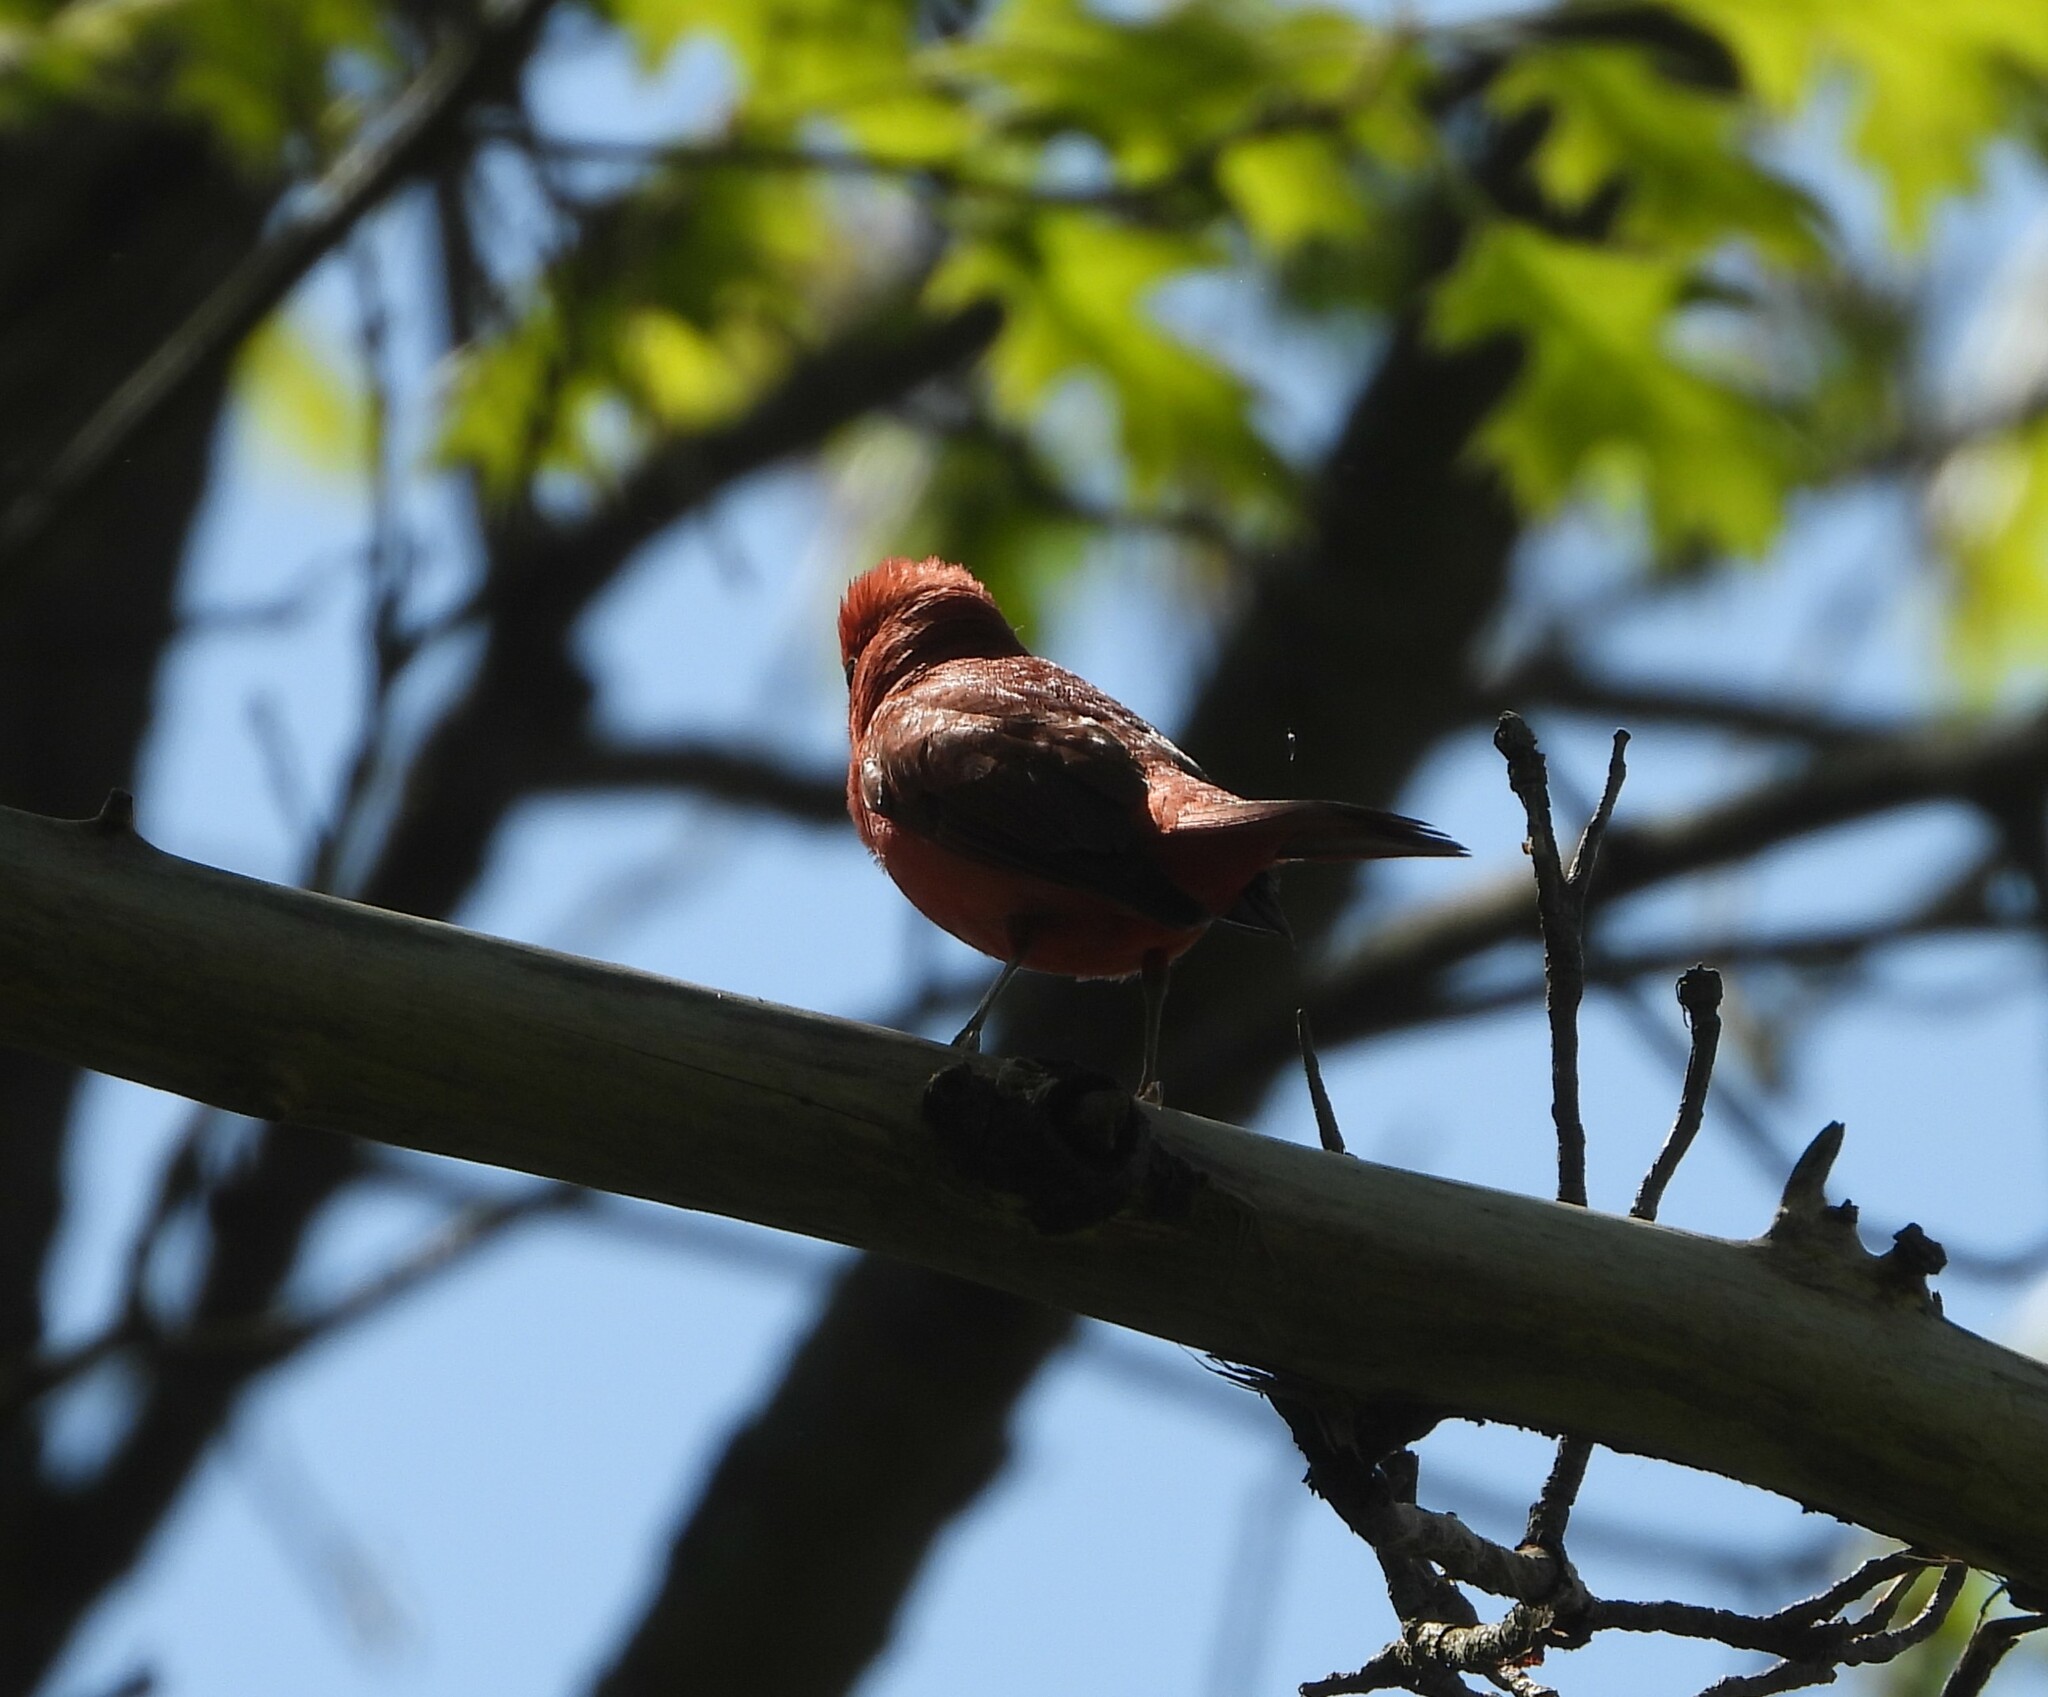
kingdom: Animalia
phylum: Chordata
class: Aves
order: Passeriformes
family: Cardinalidae
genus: Piranga
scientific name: Piranga rubra
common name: Summer tanager
